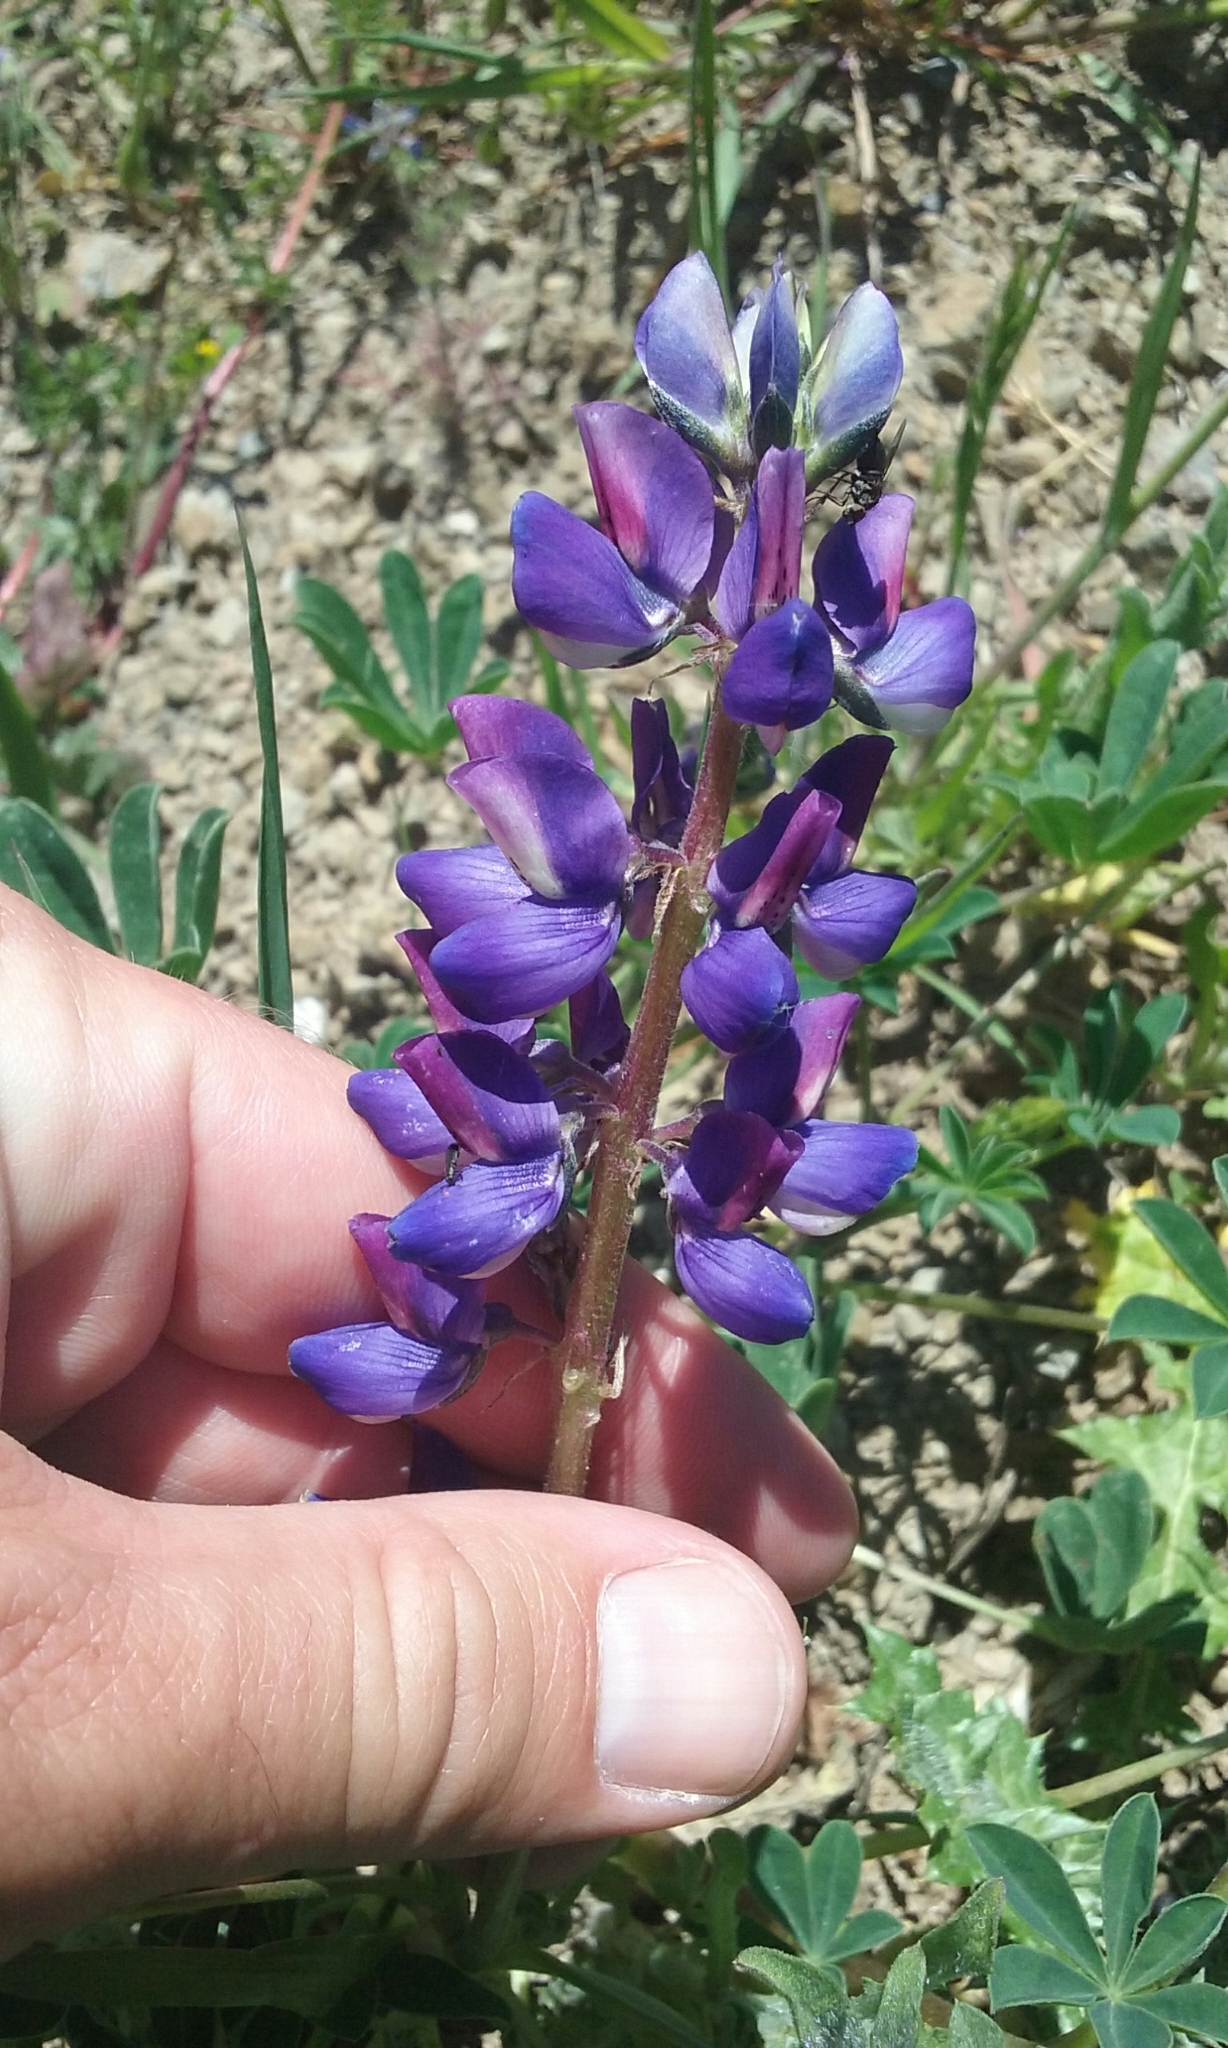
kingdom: Plantae
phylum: Tracheophyta
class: Magnoliopsida
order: Fabales
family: Fabaceae
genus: Lupinus
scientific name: Lupinus succulentus
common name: Arroyo lupine
